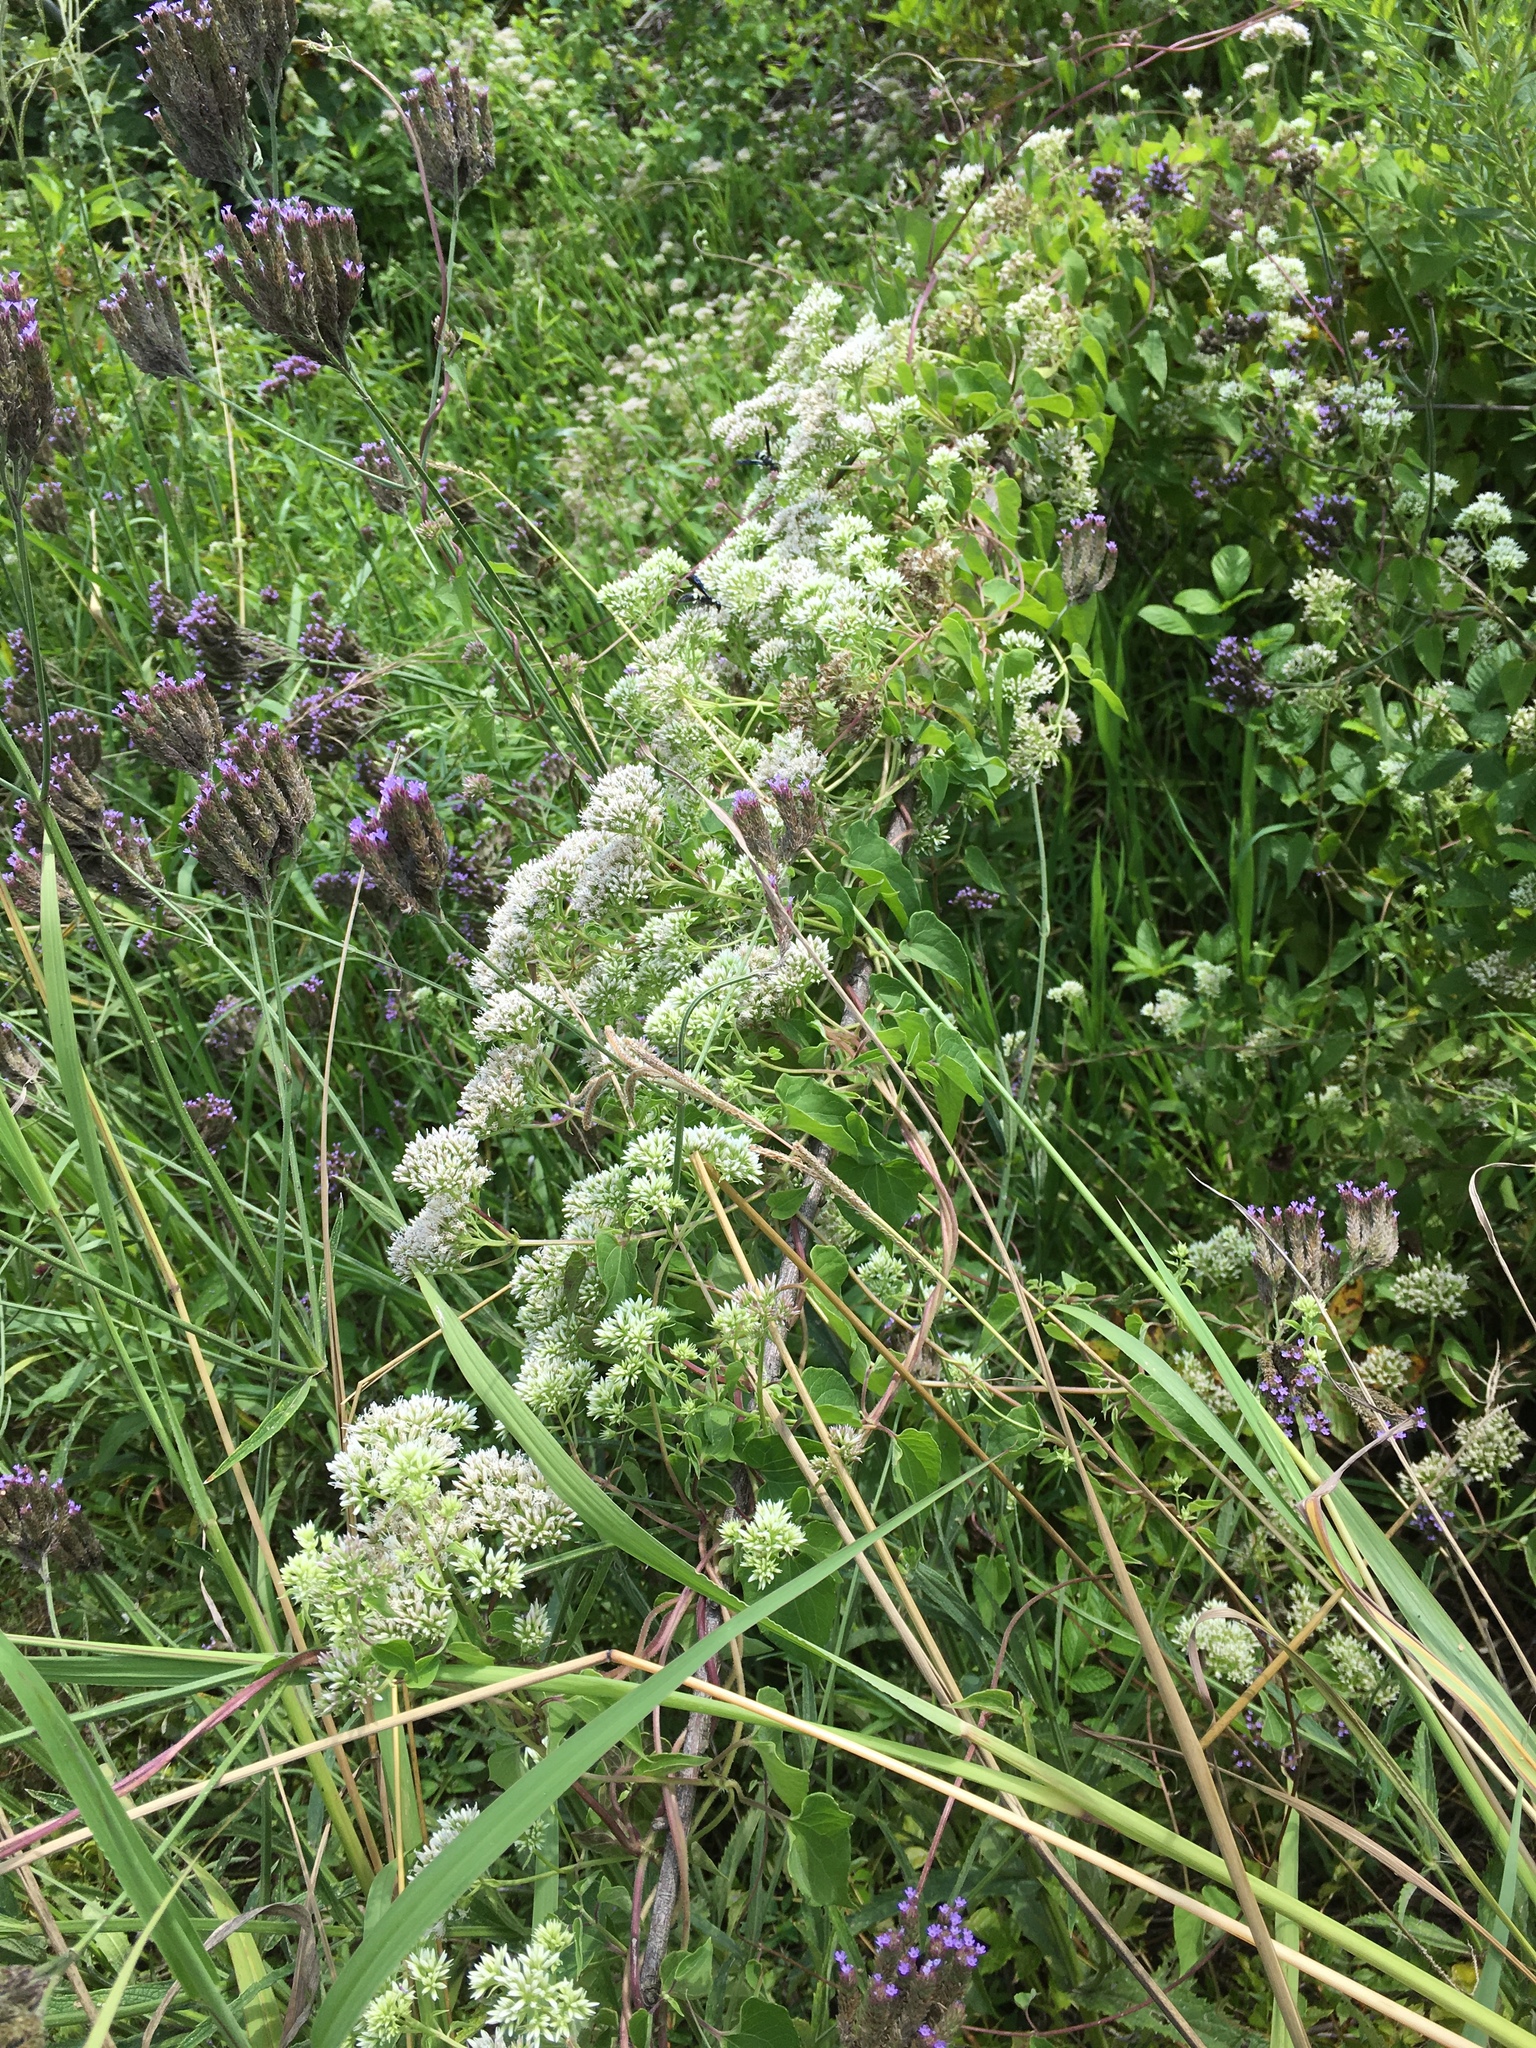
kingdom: Plantae
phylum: Tracheophyta
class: Magnoliopsida
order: Asterales
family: Asteraceae
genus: Mikania
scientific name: Mikania scandens
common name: Climbing hempvine
